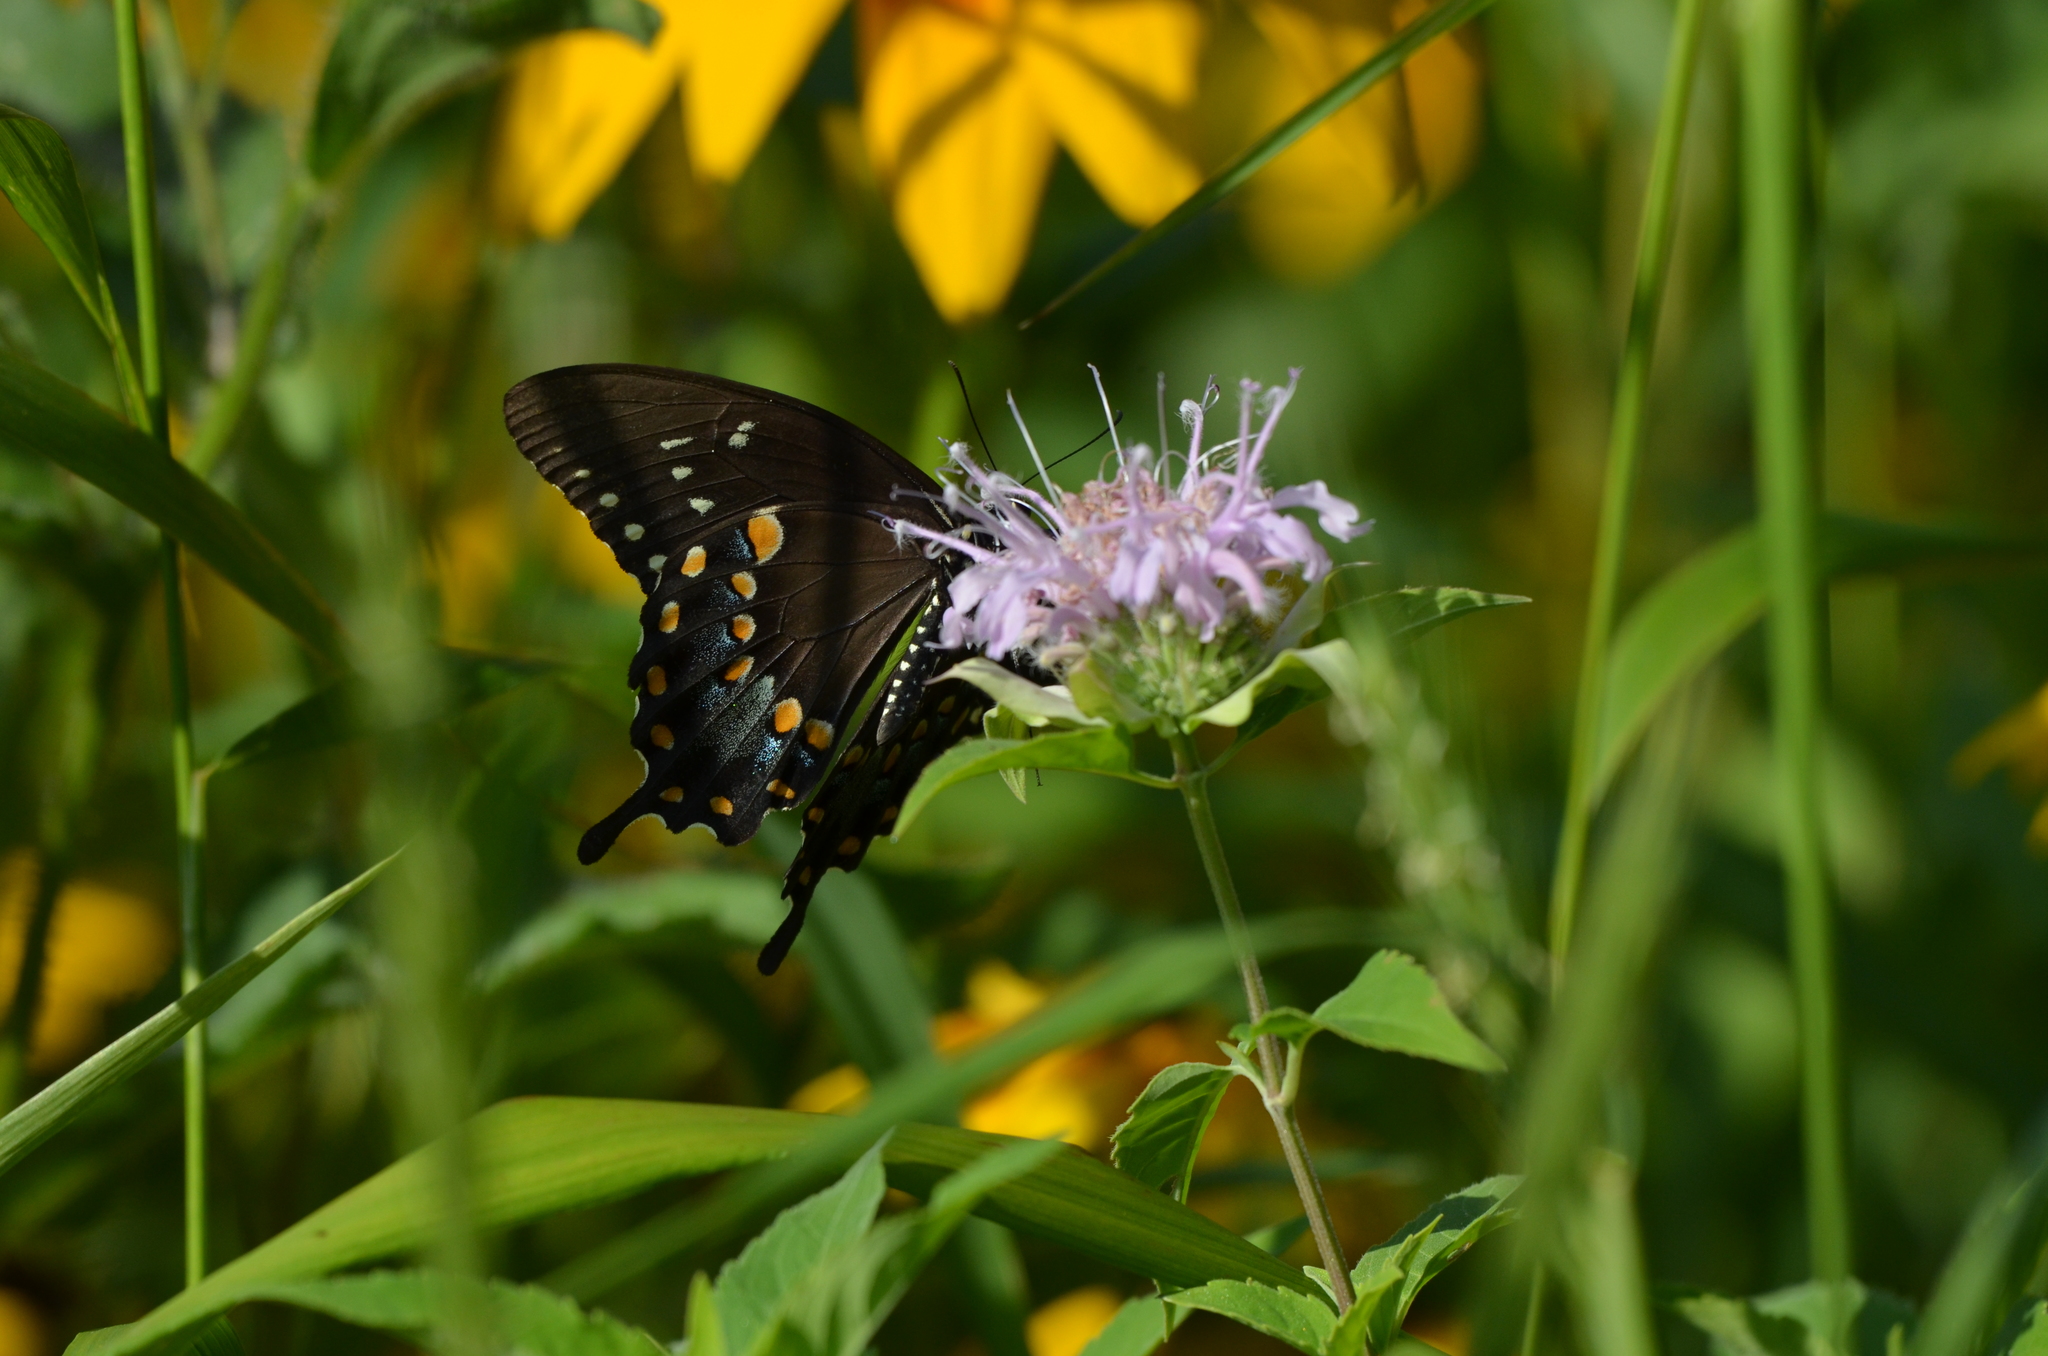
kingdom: Animalia
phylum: Arthropoda
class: Insecta
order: Lepidoptera
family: Papilionidae
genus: Papilio
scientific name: Papilio troilus
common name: Spicebush swallowtail
